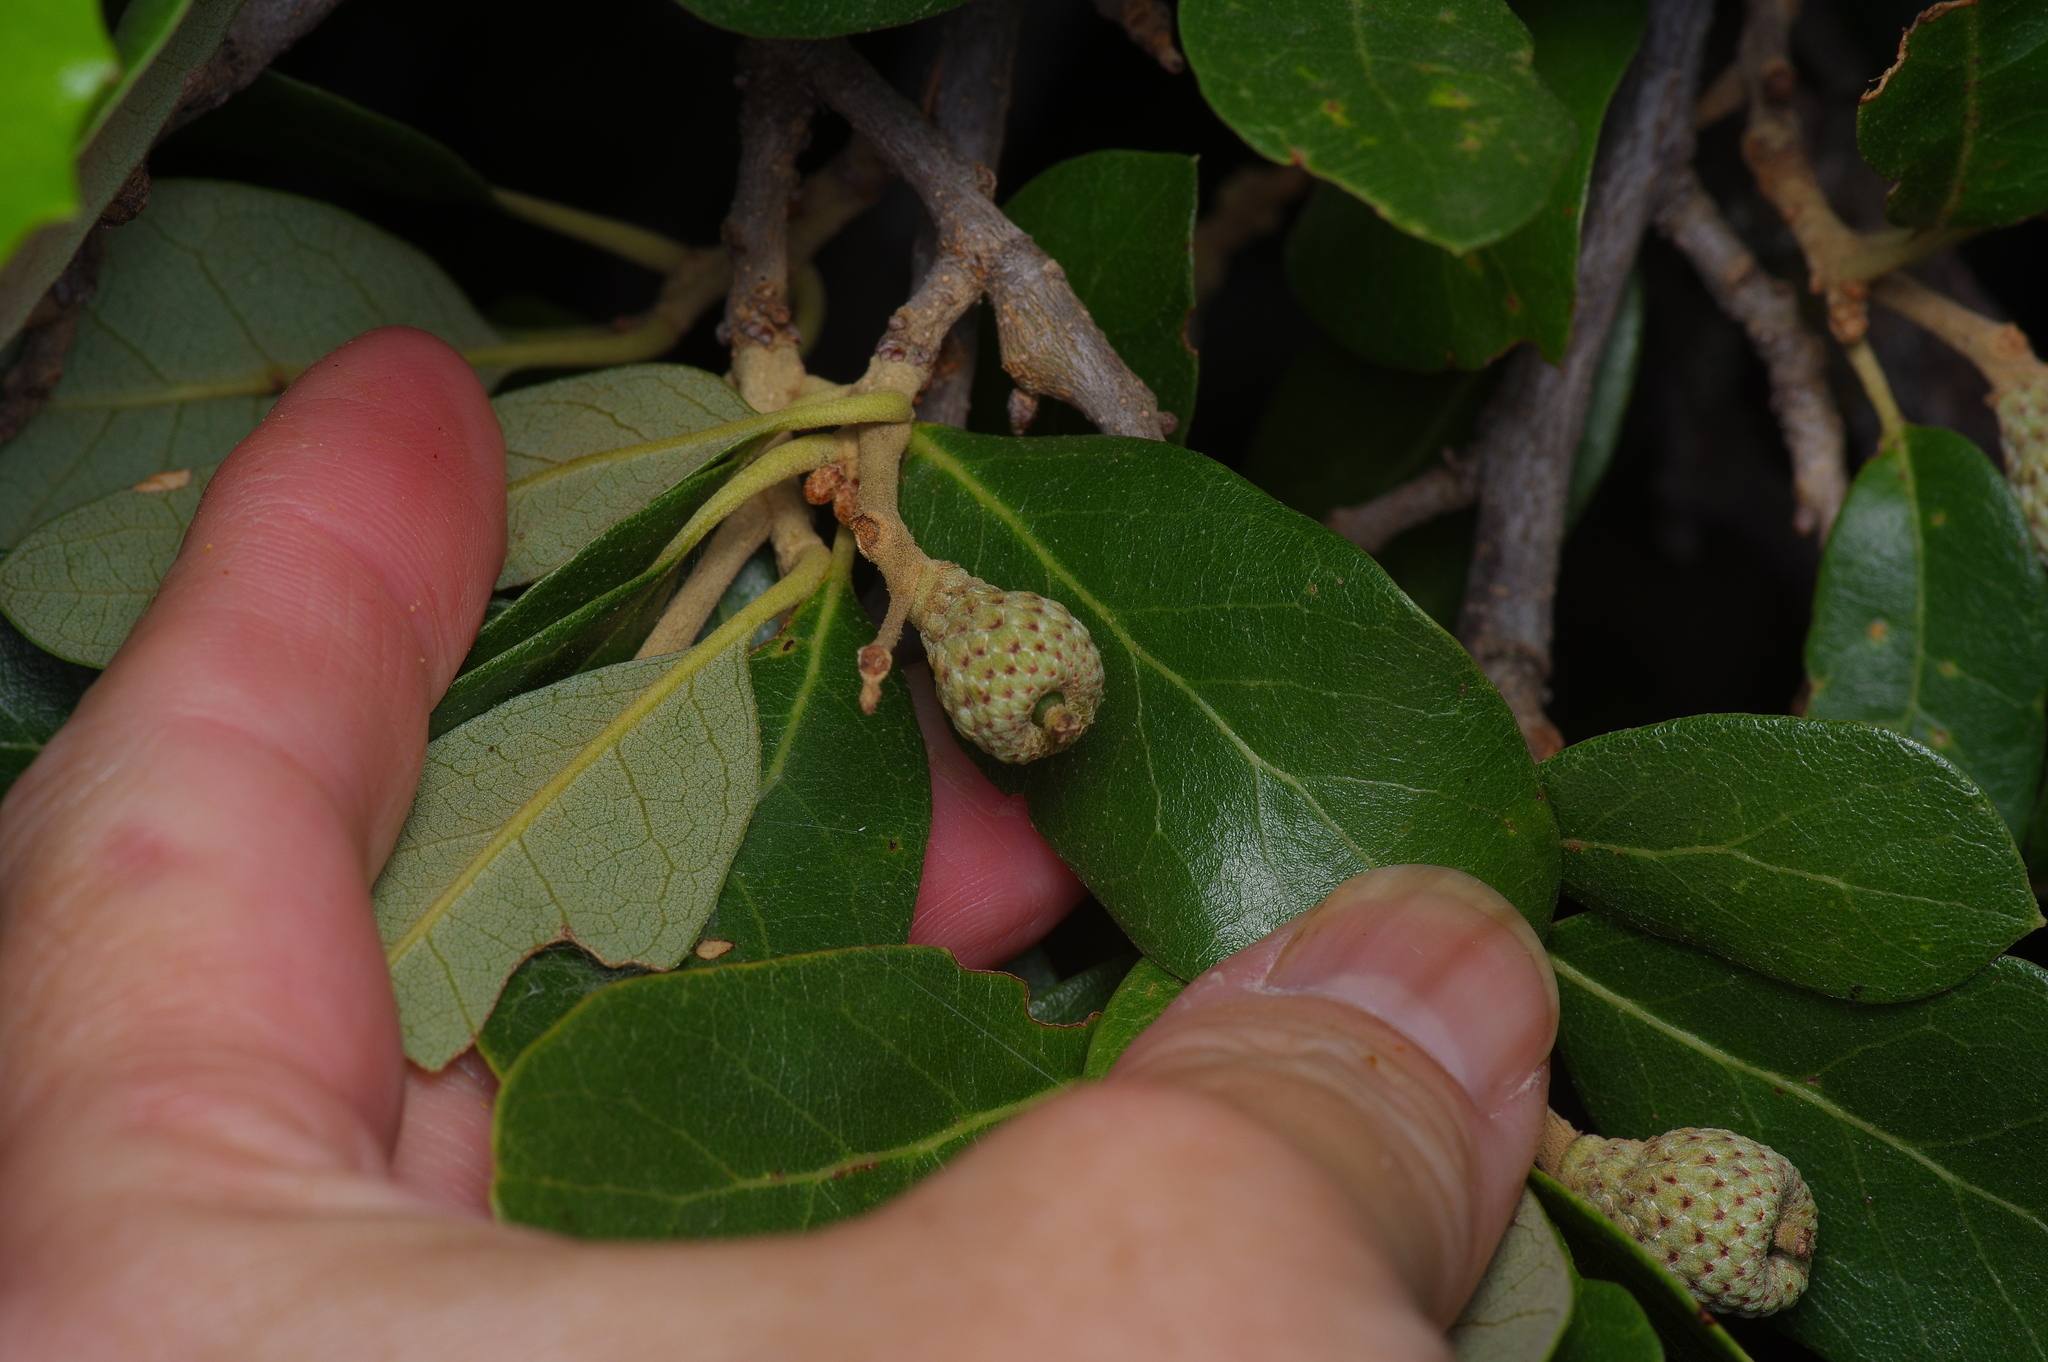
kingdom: Plantae
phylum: Tracheophyta
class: Magnoliopsida
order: Fagales
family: Fagaceae
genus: Quercus
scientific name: Quercus fusiformis
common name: Texas live oak
